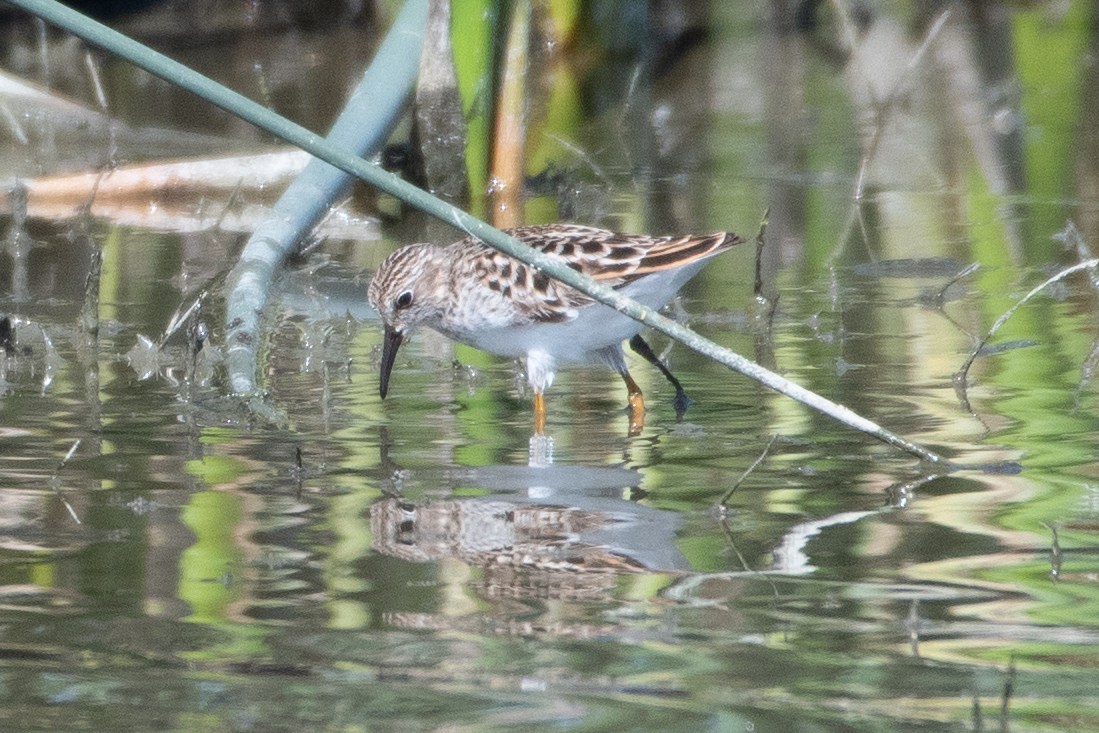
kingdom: Animalia
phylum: Chordata
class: Aves
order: Charadriiformes
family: Scolopacidae
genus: Calidris
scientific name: Calidris minutilla
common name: Least sandpiper
